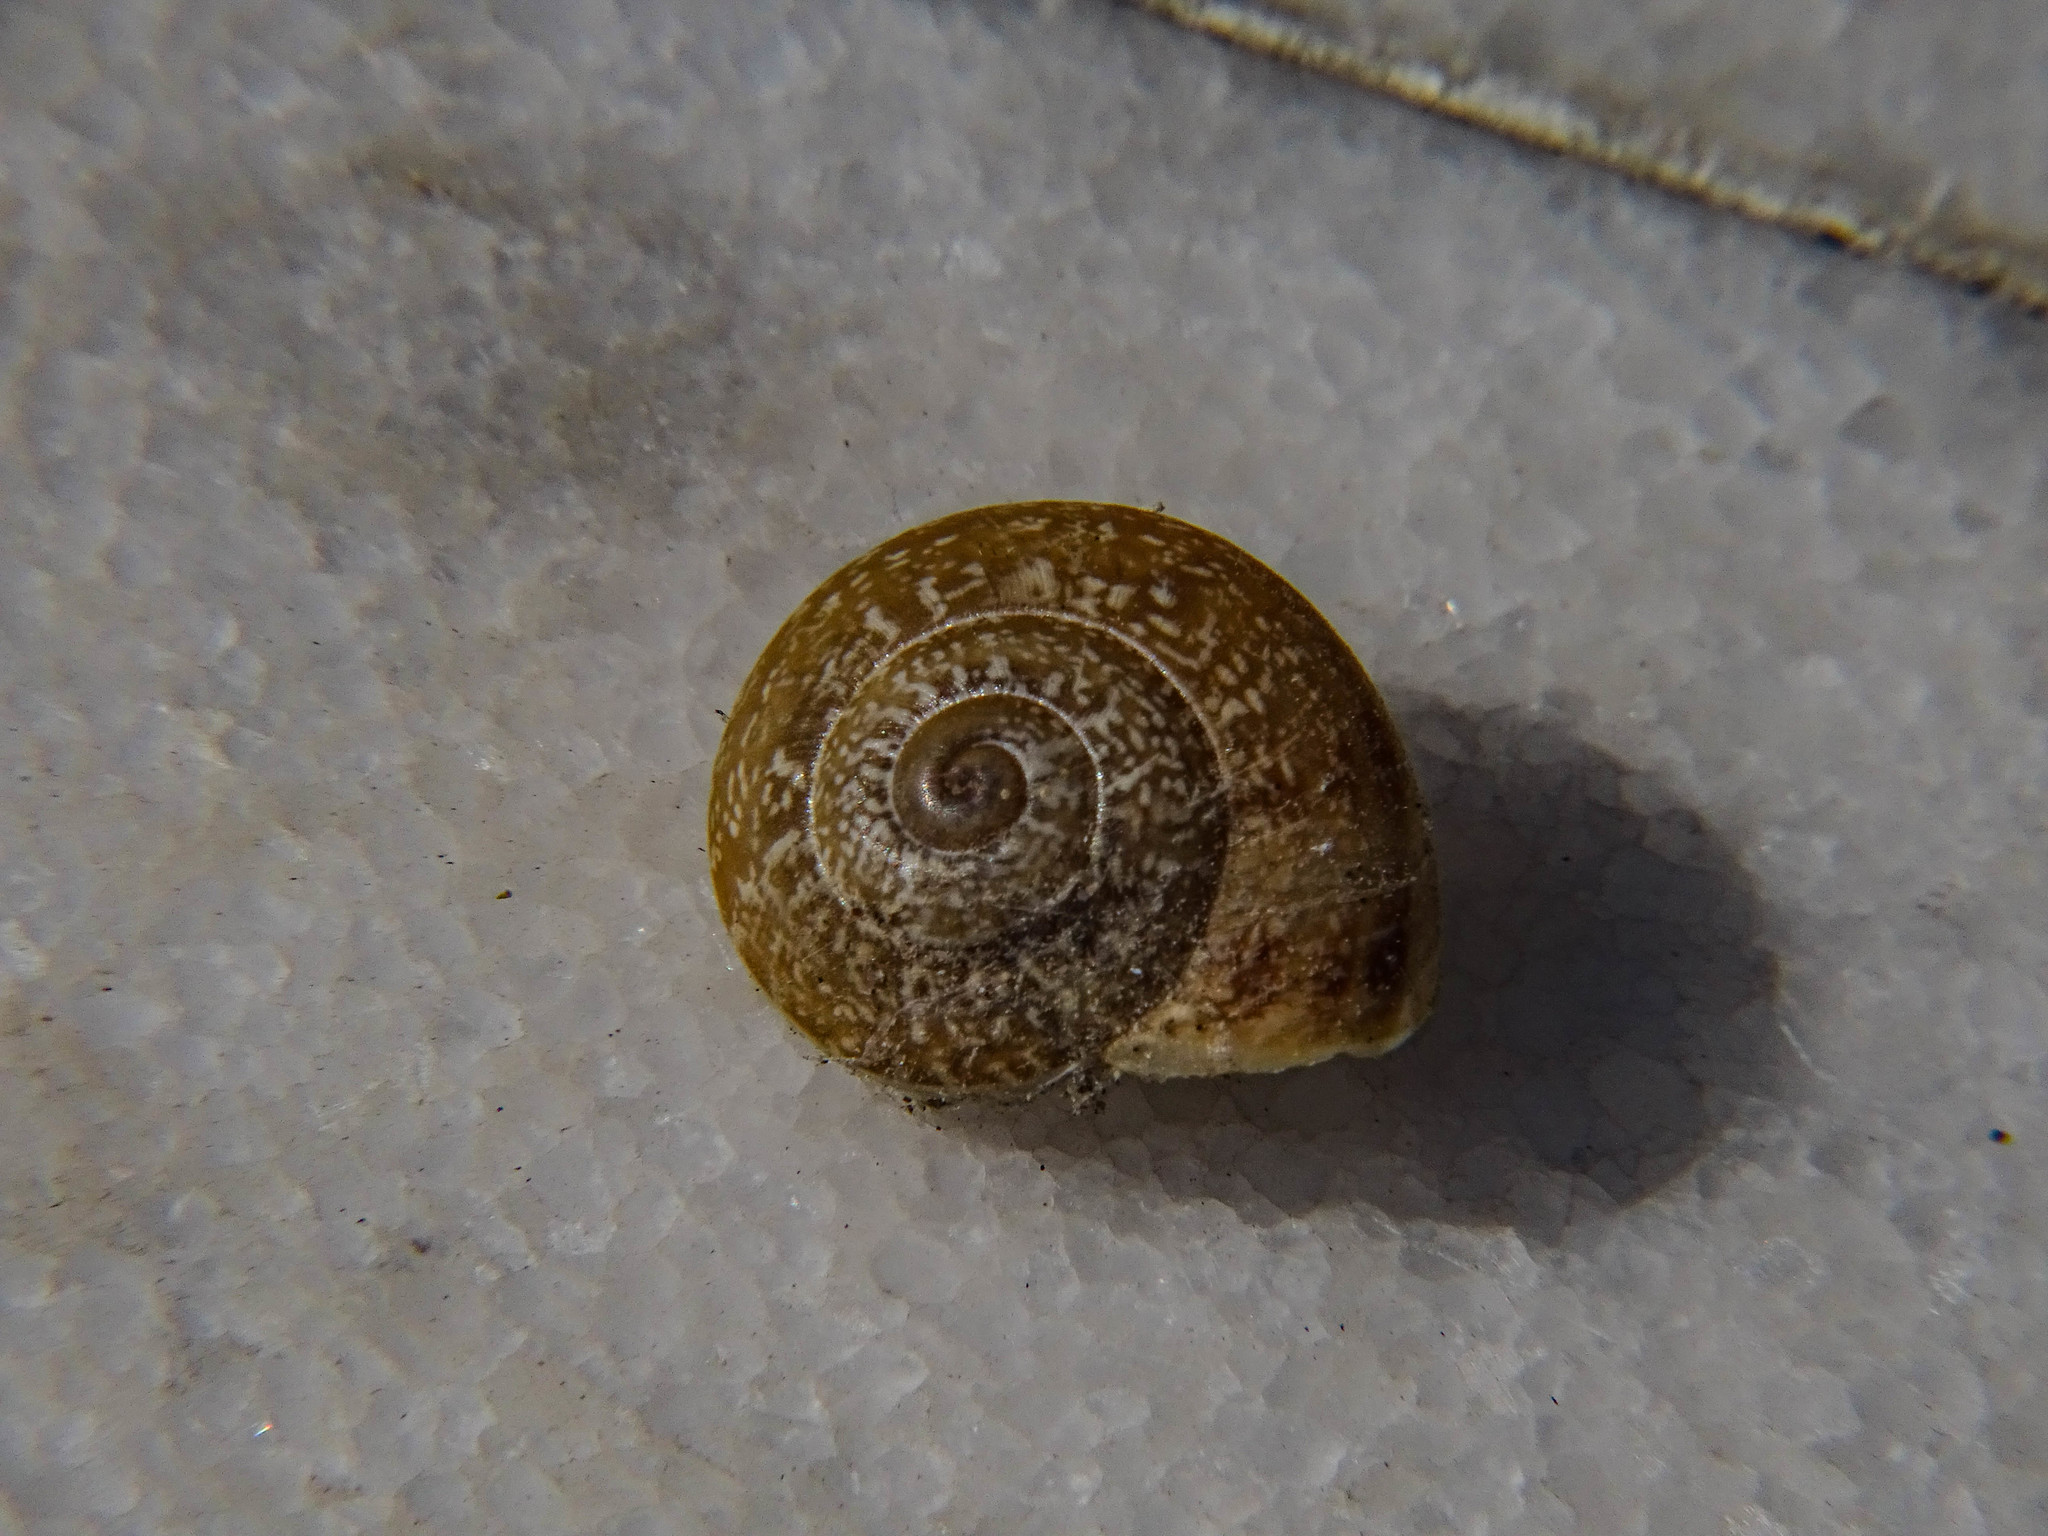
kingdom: Animalia
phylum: Mollusca
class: Gastropoda
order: Stylommatophora
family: Helicidae
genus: Eobania
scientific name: Eobania vermiculata
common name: Chocolateband snail
